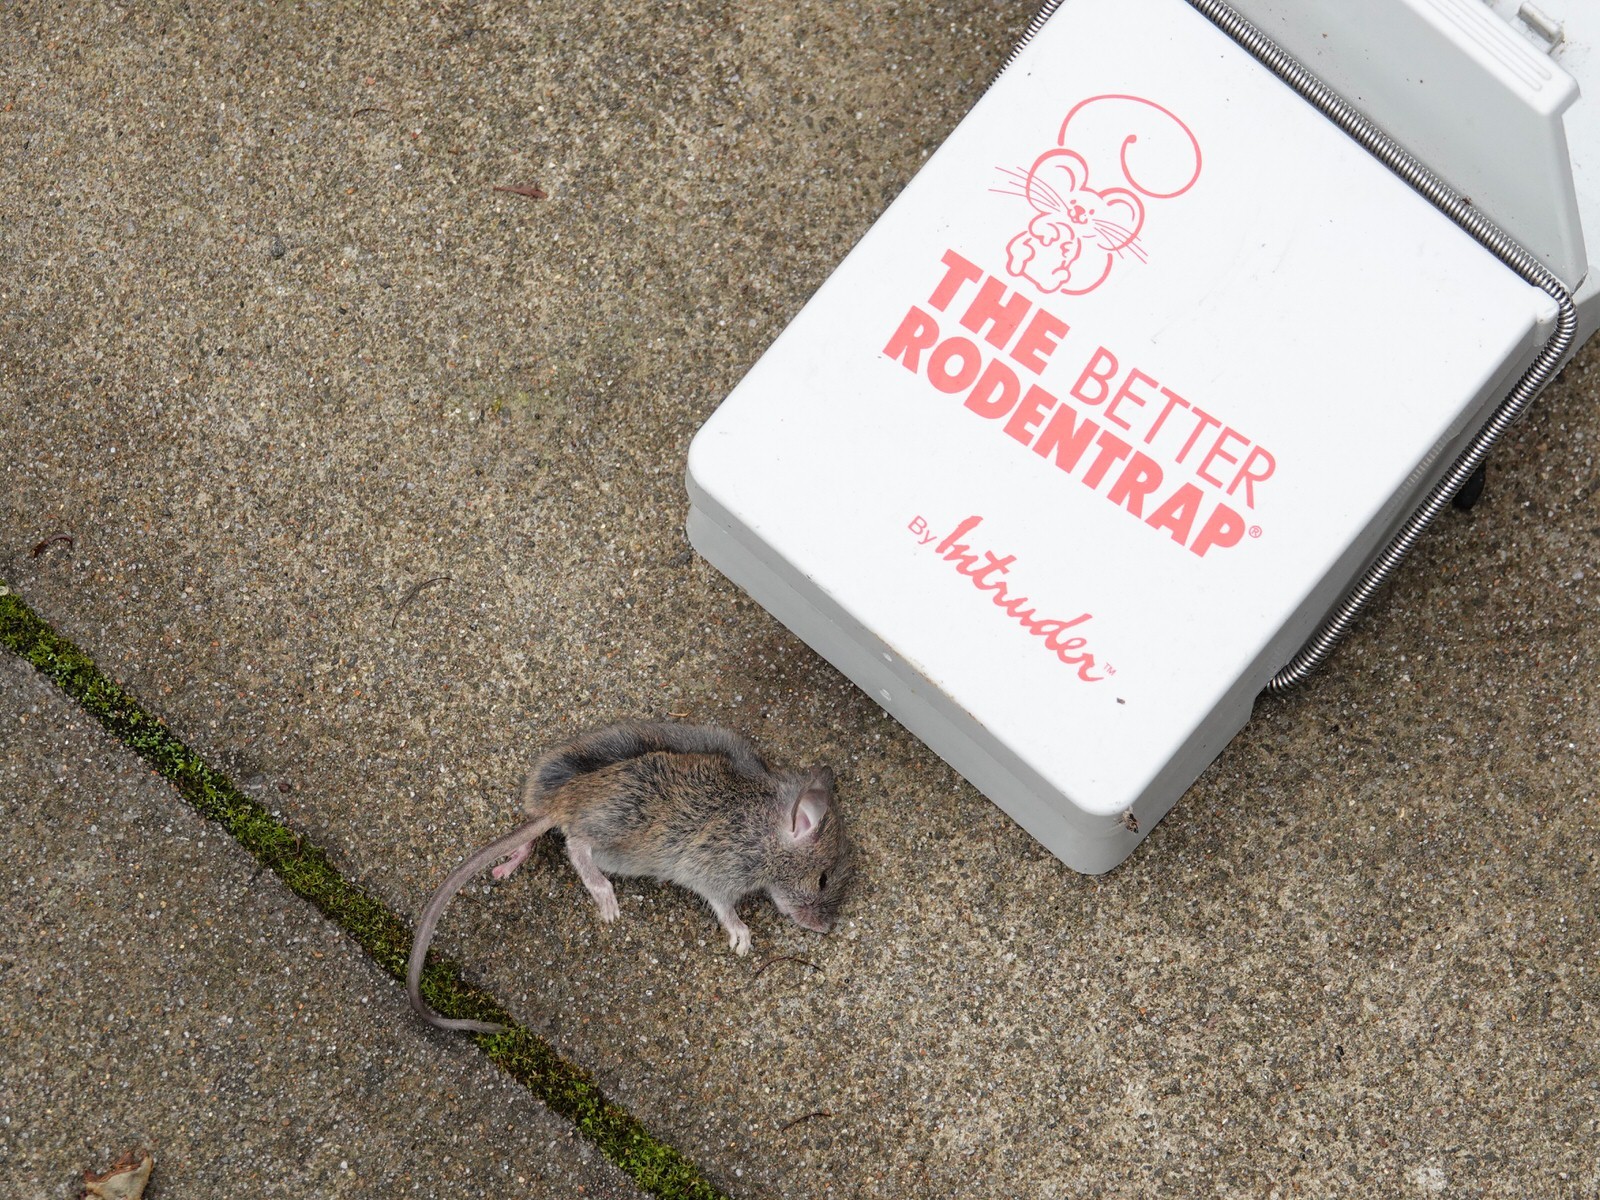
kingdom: Animalia
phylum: Chordata
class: Mammalia
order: Rodentia
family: Muridae
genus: Mus
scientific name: Mus musculus
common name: House mouse
